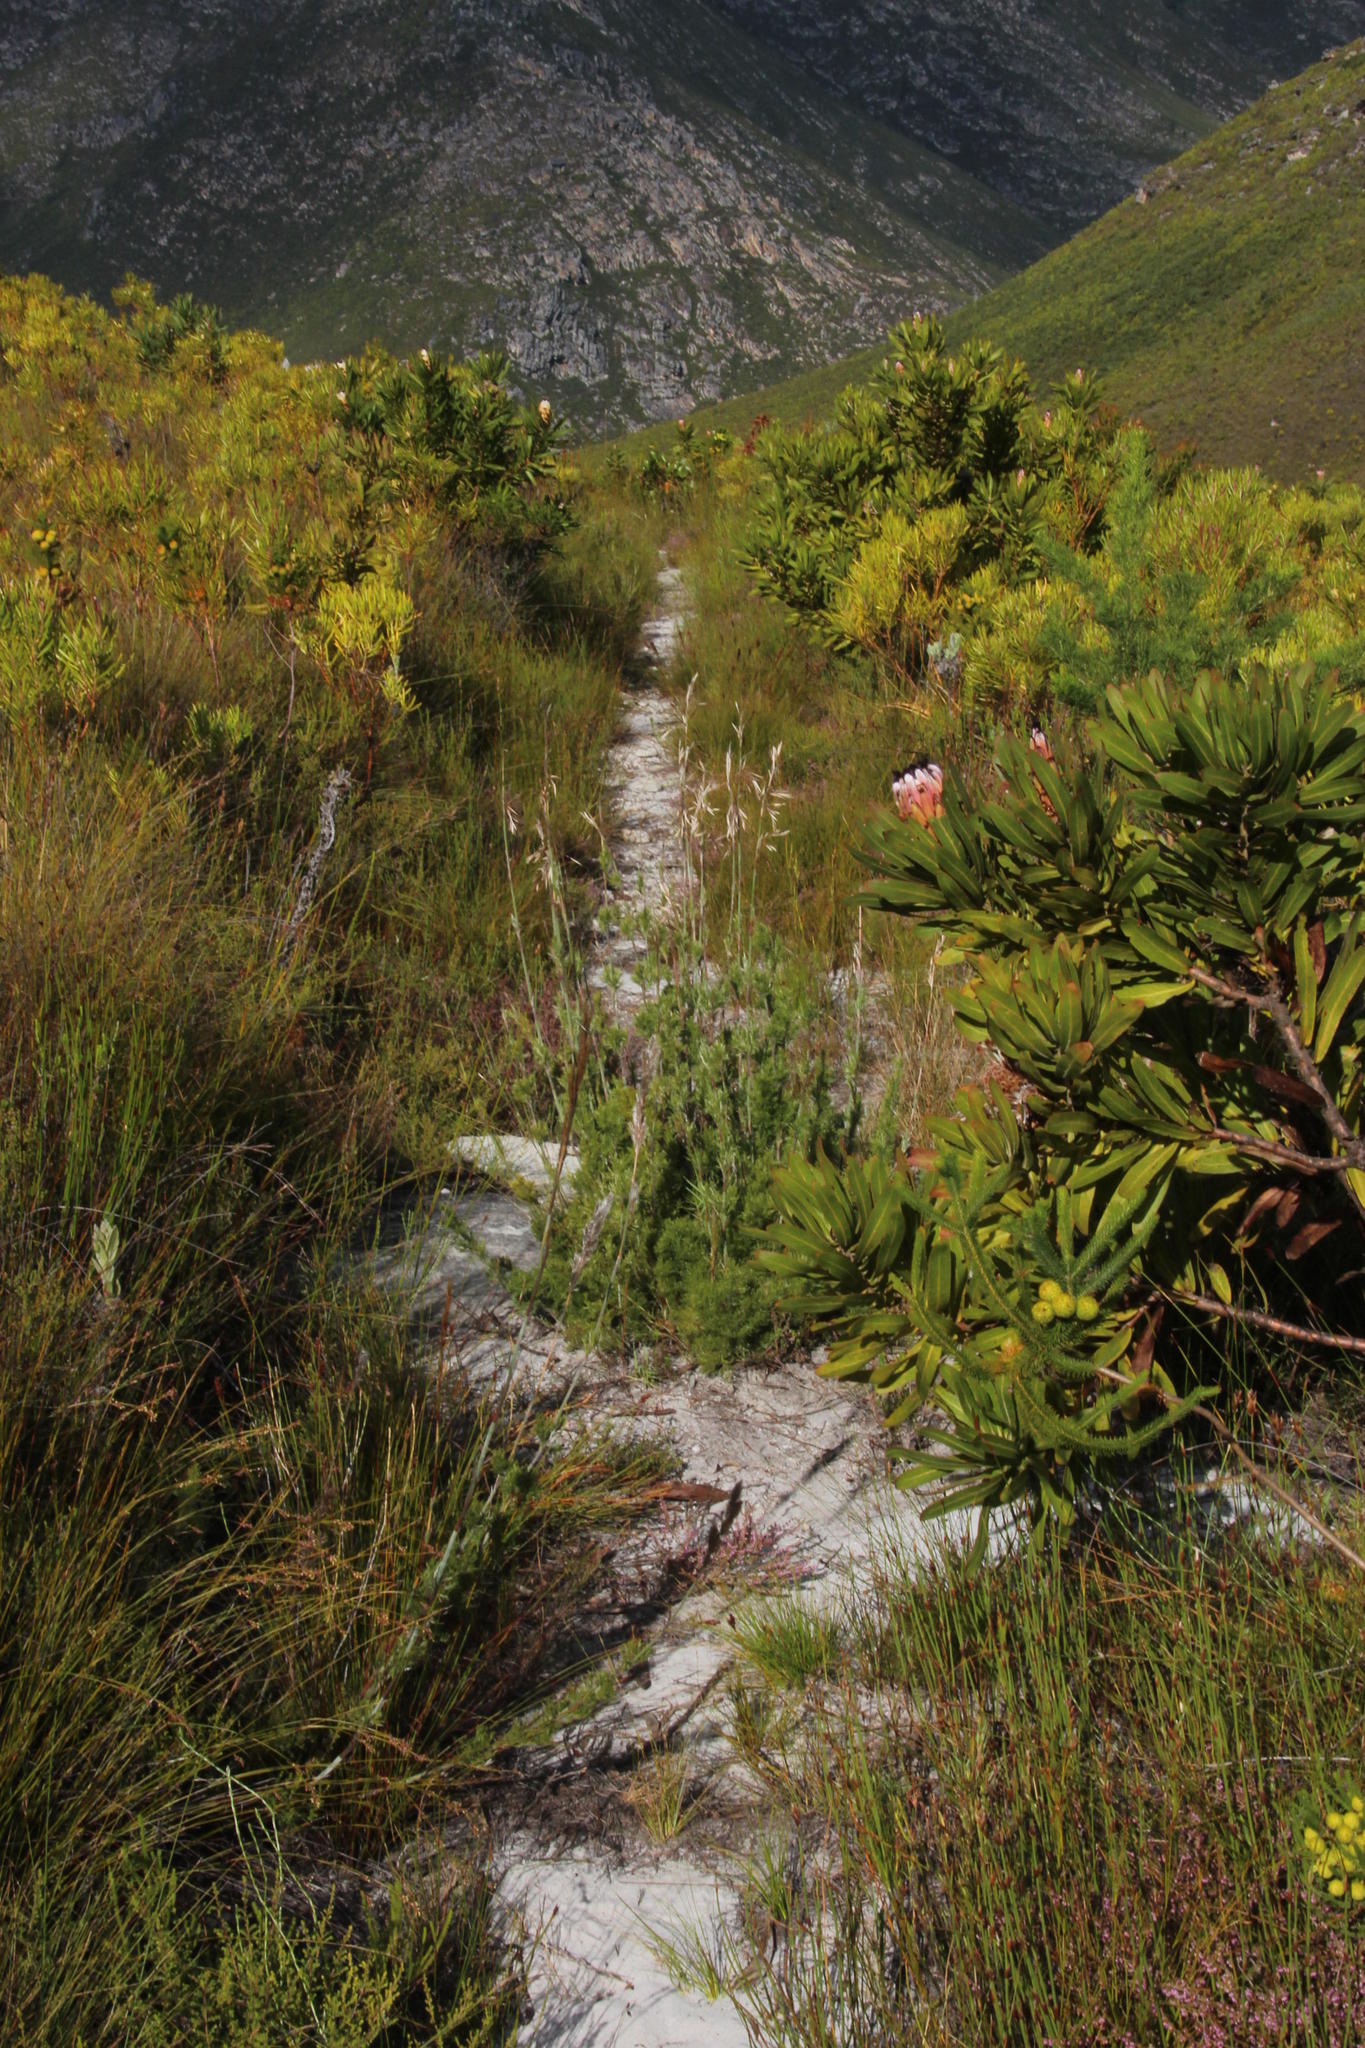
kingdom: Plantae
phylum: Tracheophyta
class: Liliopsida
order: Poales
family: Restionaceae
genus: Thamnochortus
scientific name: Thamnochortus cinereus
